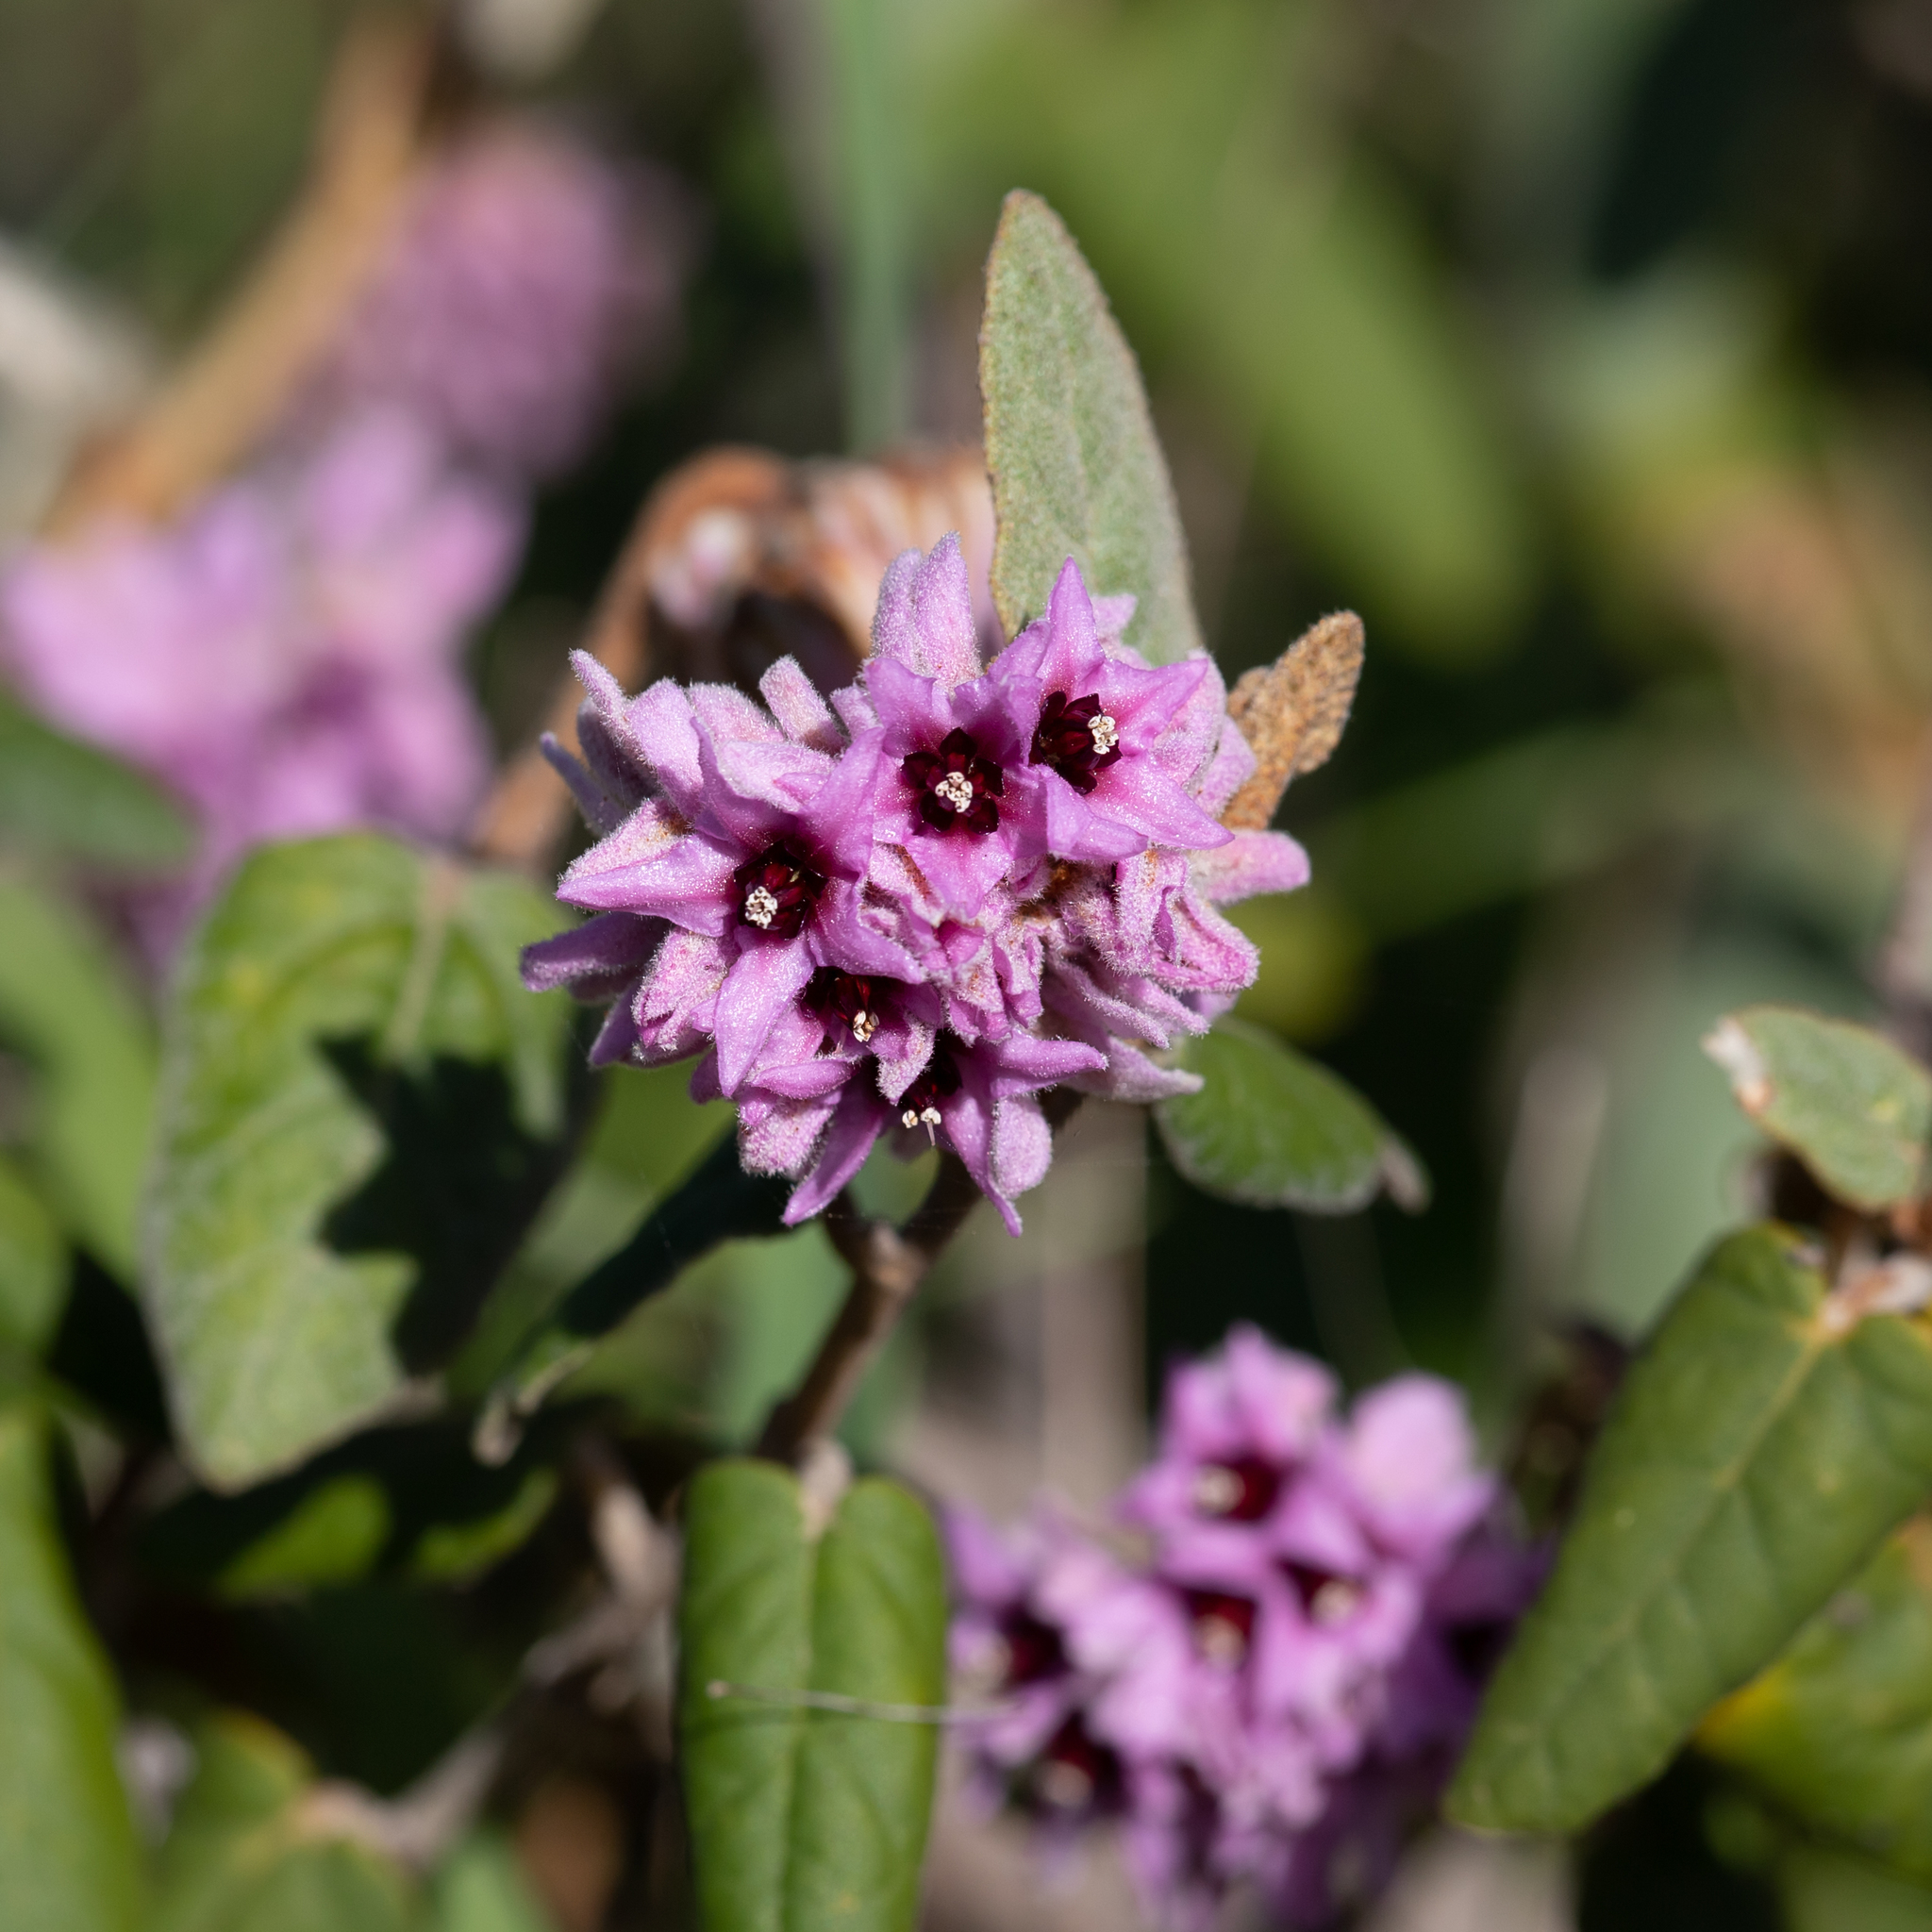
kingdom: Plantae
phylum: Tracheophyta
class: Magnoliopsida
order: Malvales
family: Malvaceae
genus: Lasiopetalum
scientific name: Lasiopetalum discolor
